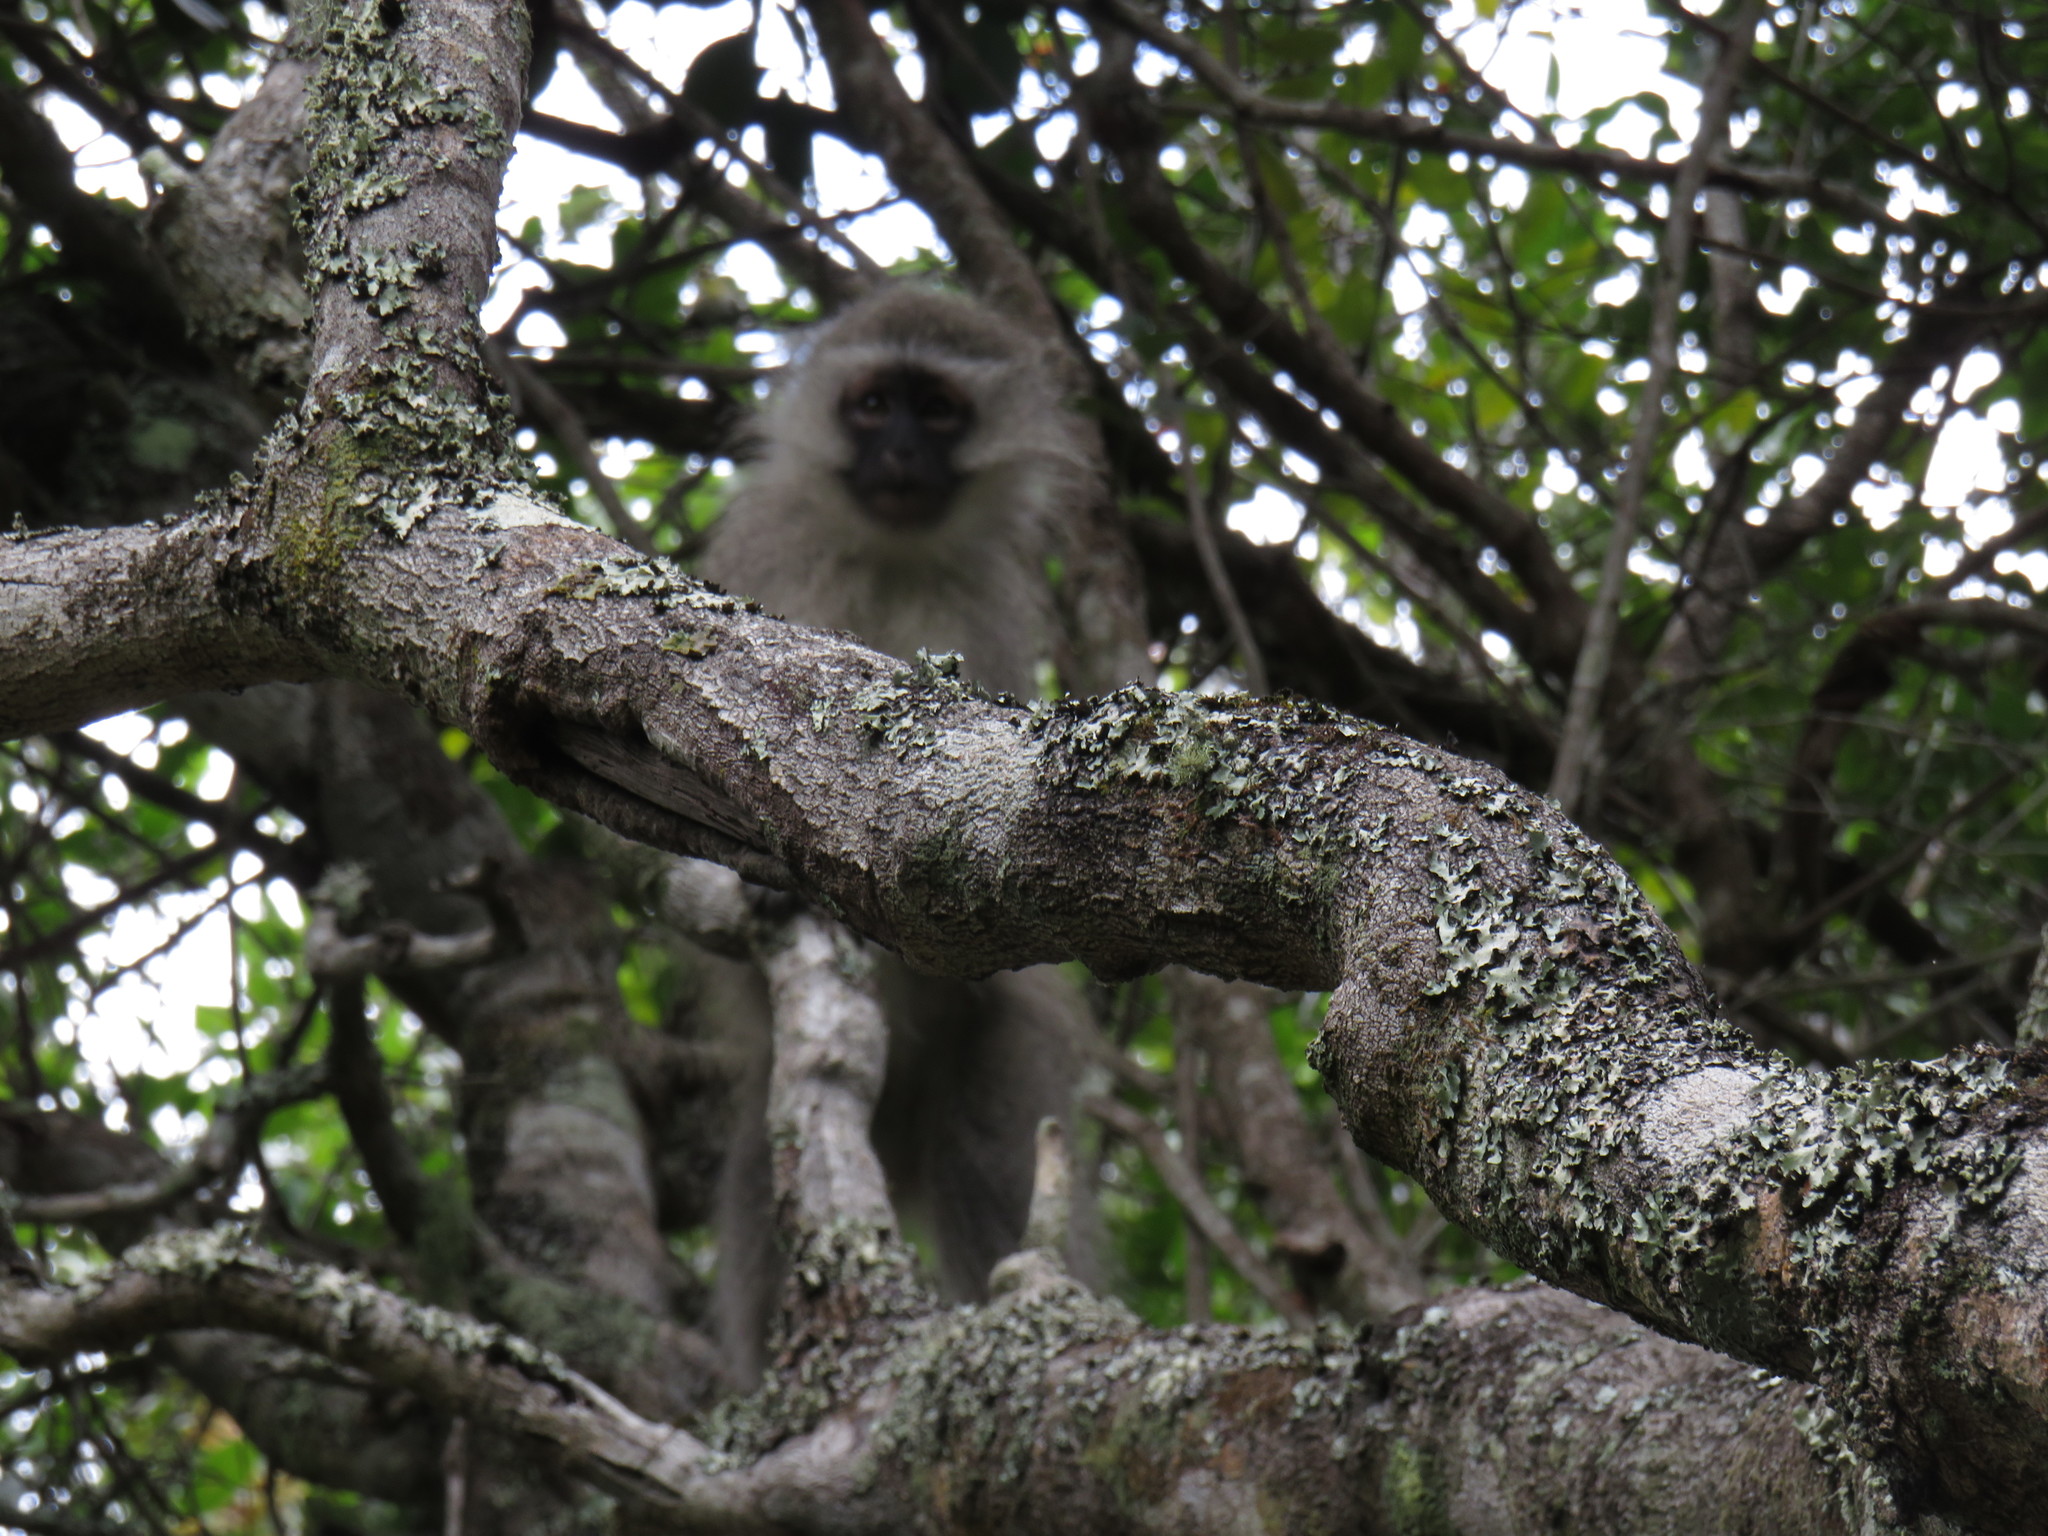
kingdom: Animalia
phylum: Chordata
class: Mammalia
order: Primates
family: Cercopithecidae
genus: Chlorocebus
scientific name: Chlorocebus pygerythrus
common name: Vervet monkey
